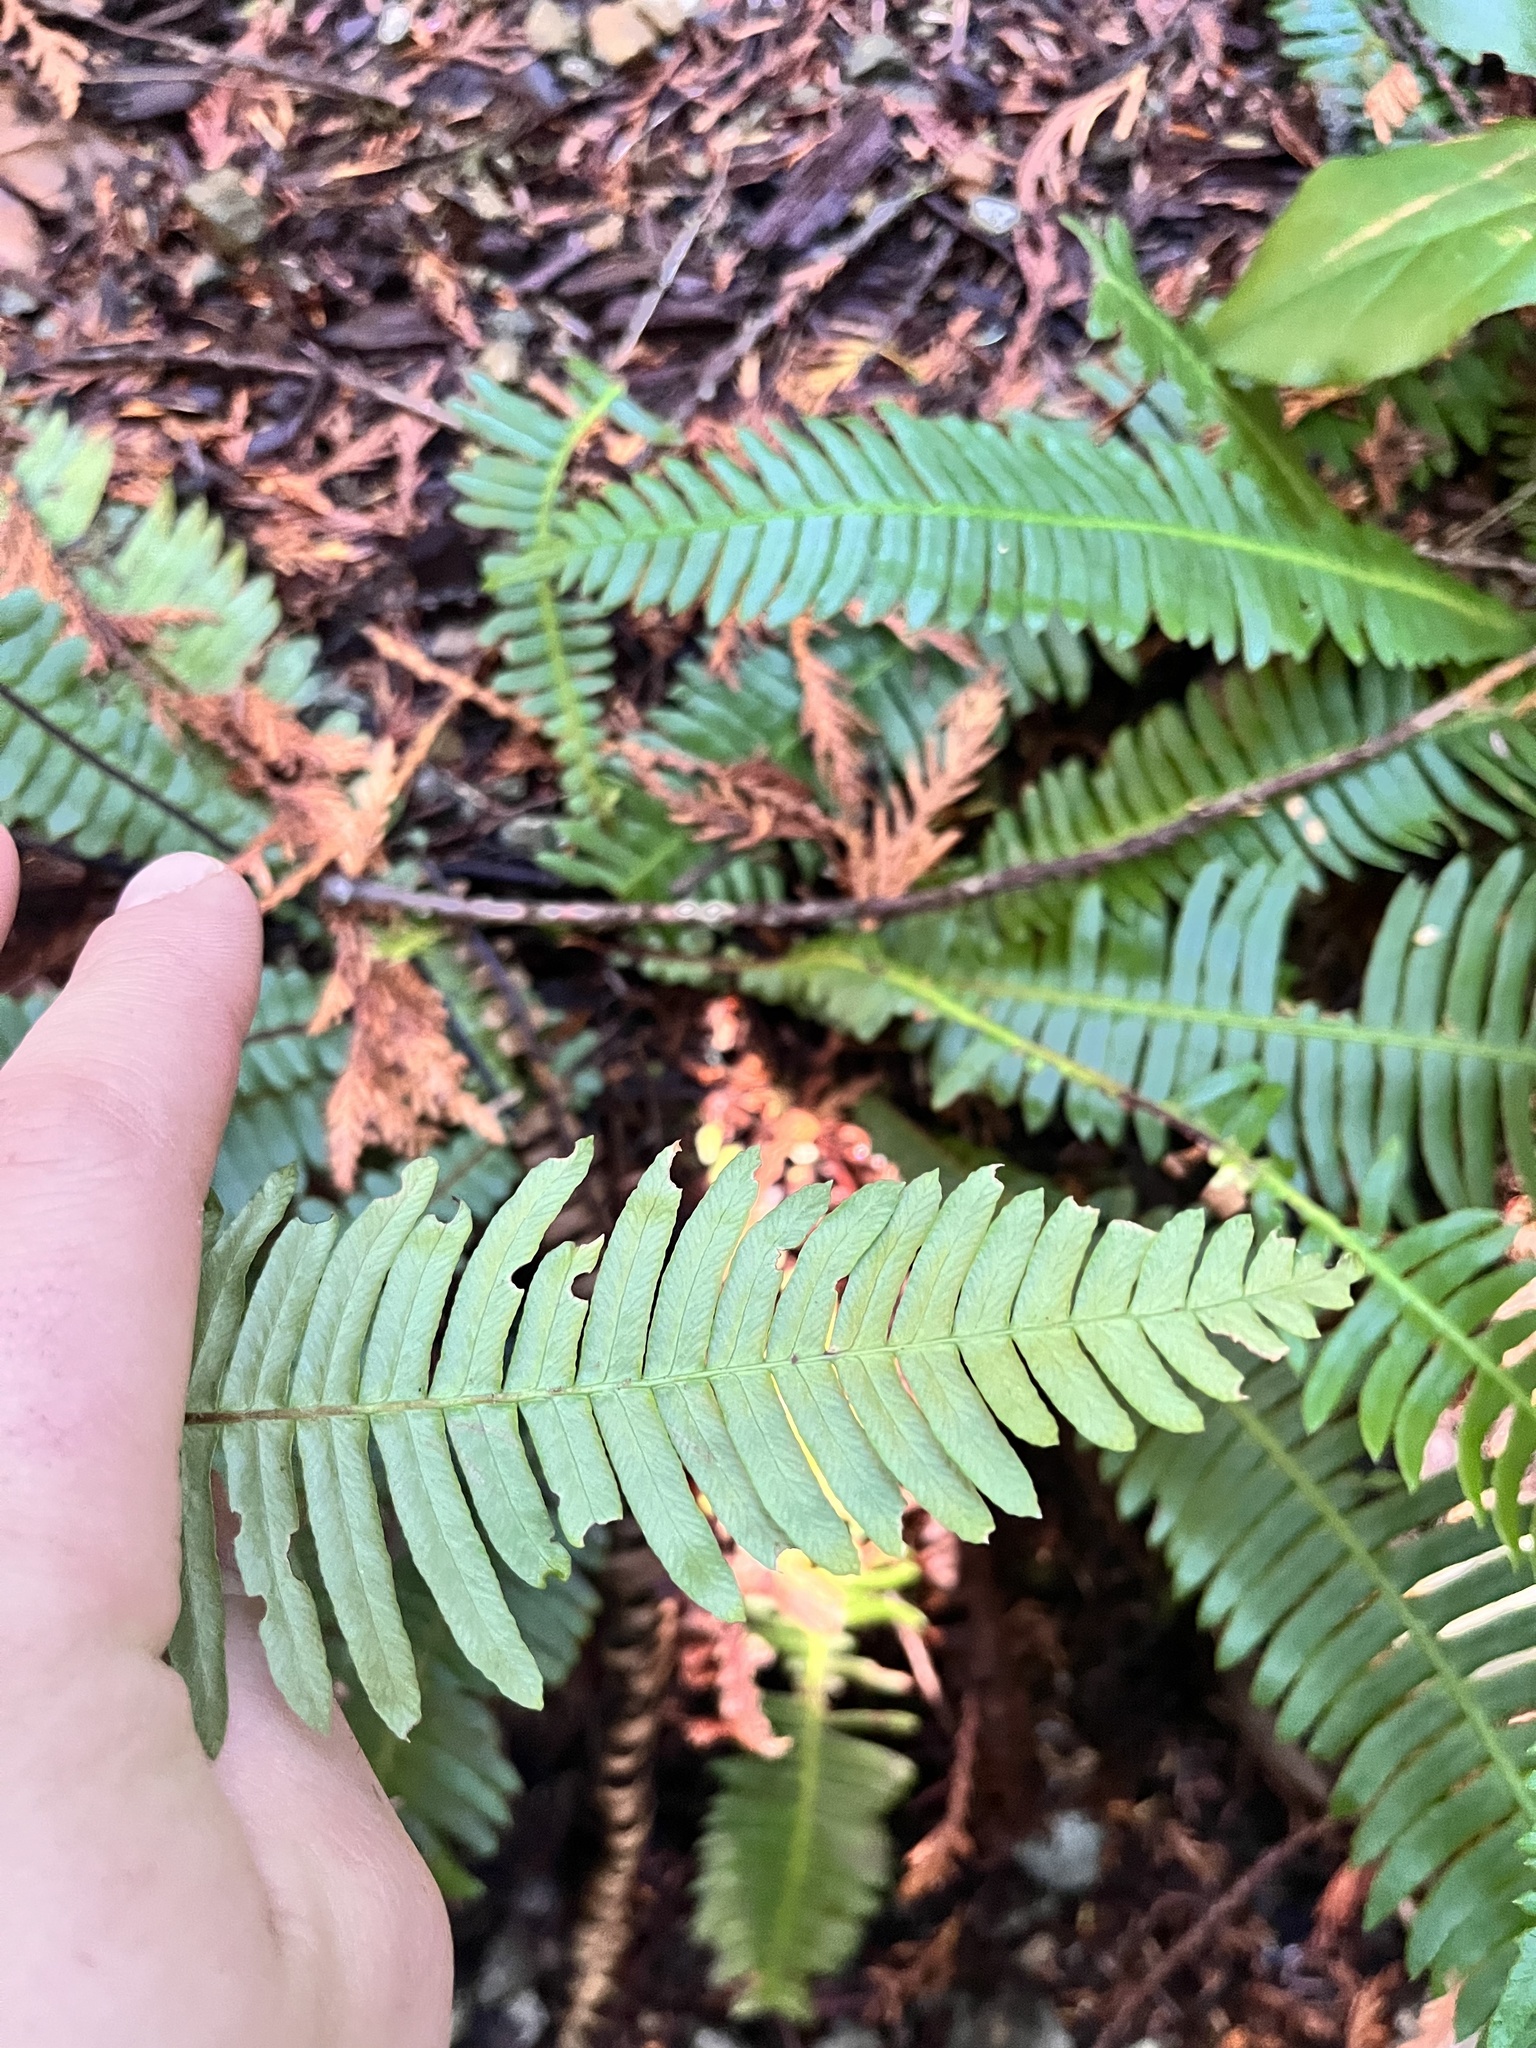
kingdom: Plantae
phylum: Tracheophyta
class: Polypodiopsida
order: Polypodiales
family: Blechnaceae
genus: Struthiopteris
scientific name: Struthiopteris spicant
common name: Deer fern
